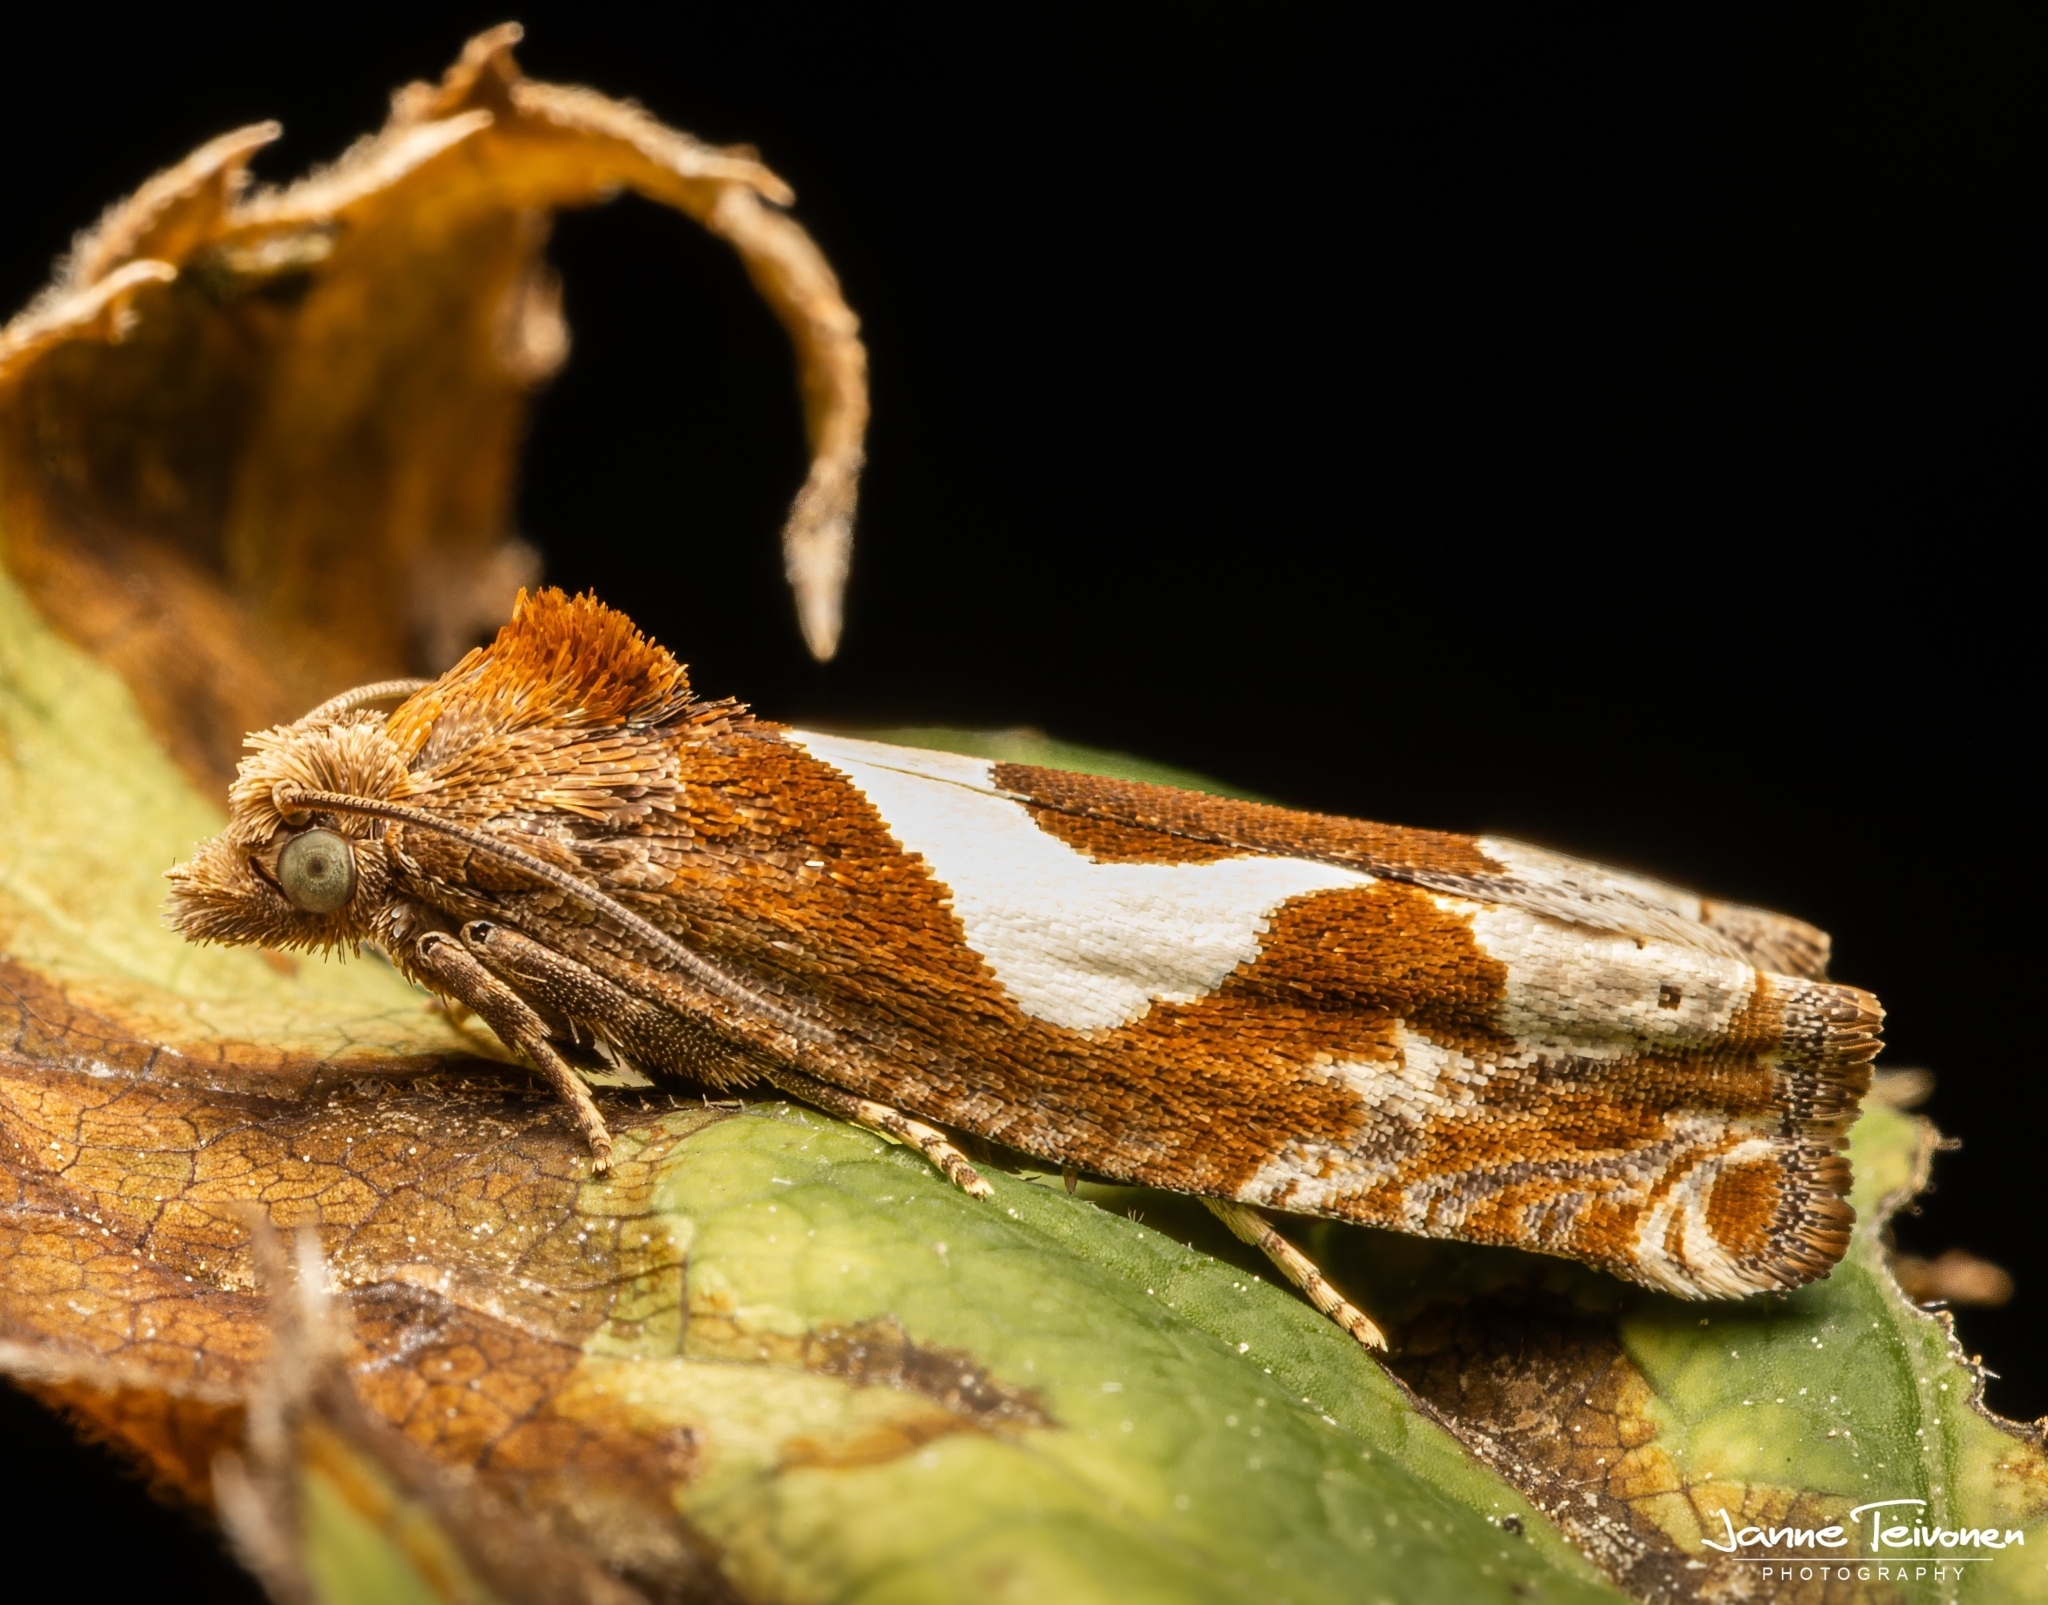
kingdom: Animalia
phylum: Arthropoda
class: Insecta
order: Lepidoptera
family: Tortricidae
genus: Epiblema
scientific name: Epiblema foenella
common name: White-foot bell
